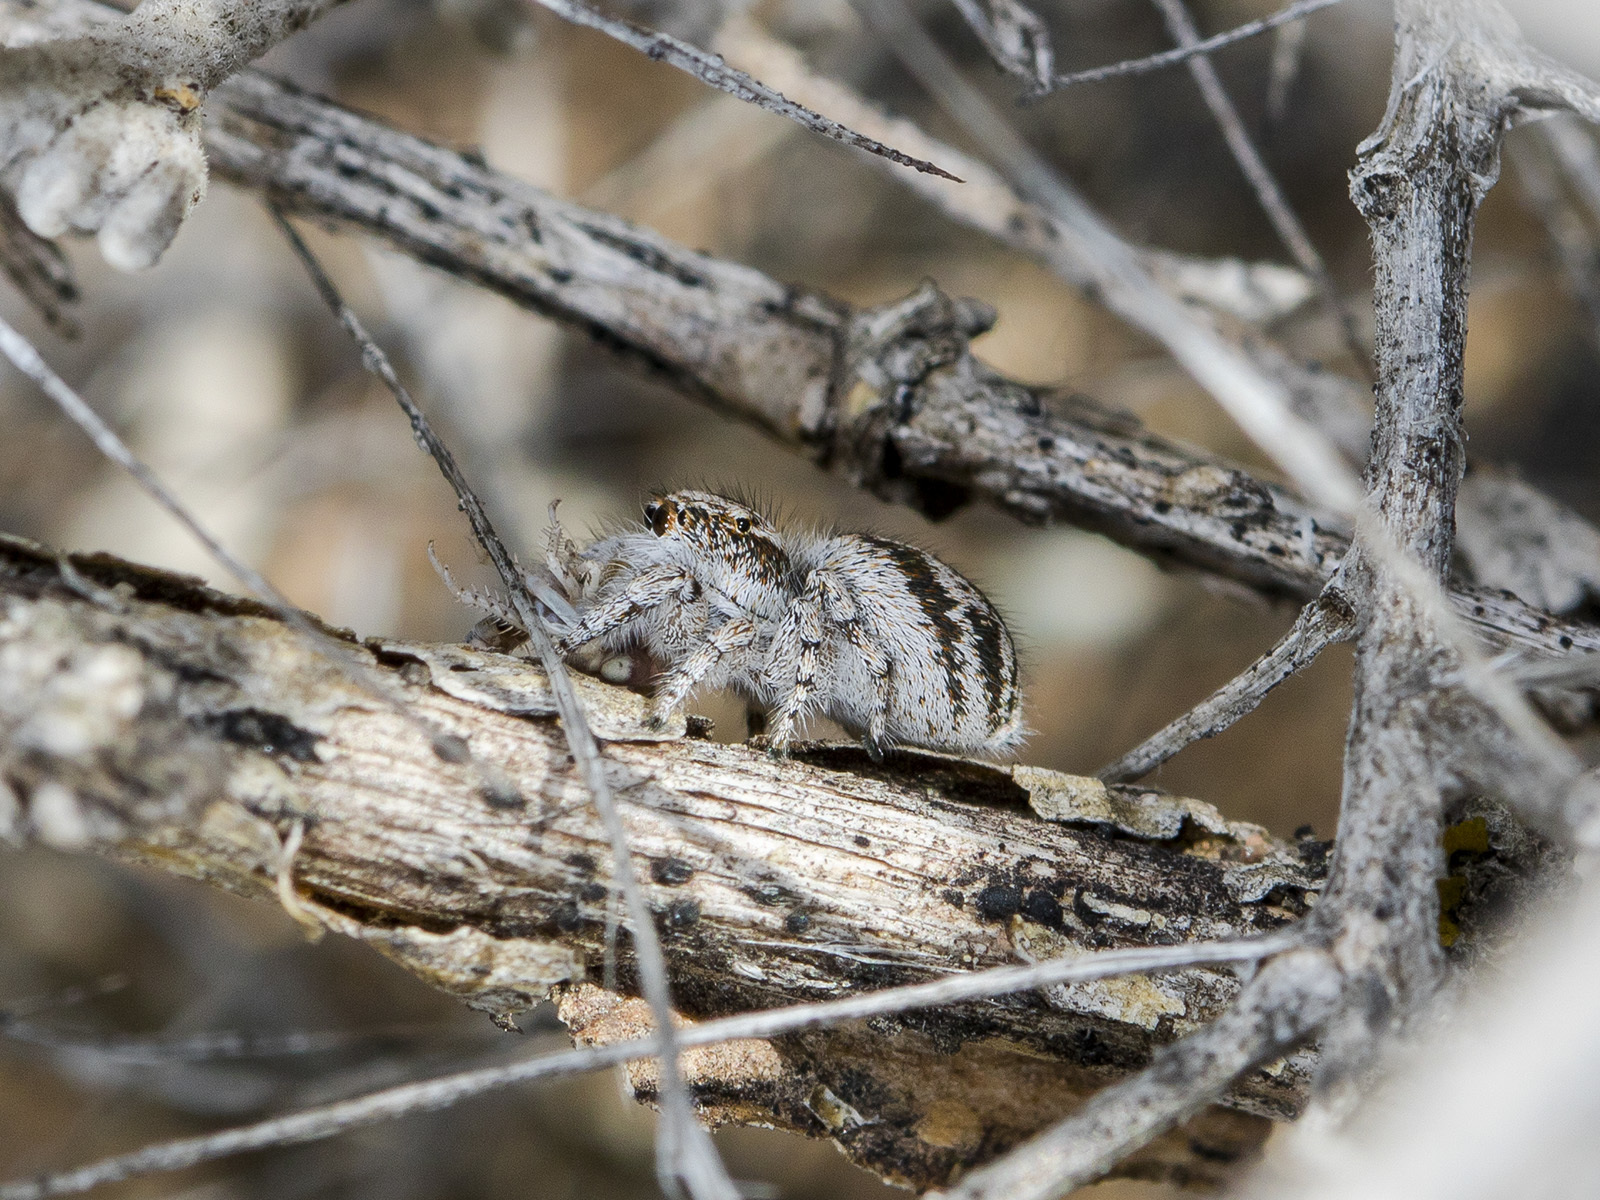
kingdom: Animalia
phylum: Arthropoda
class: Arachnida
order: Araneae
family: Salticidae
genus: Pseudomogrus
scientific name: Pseudomogrus dalaensis
